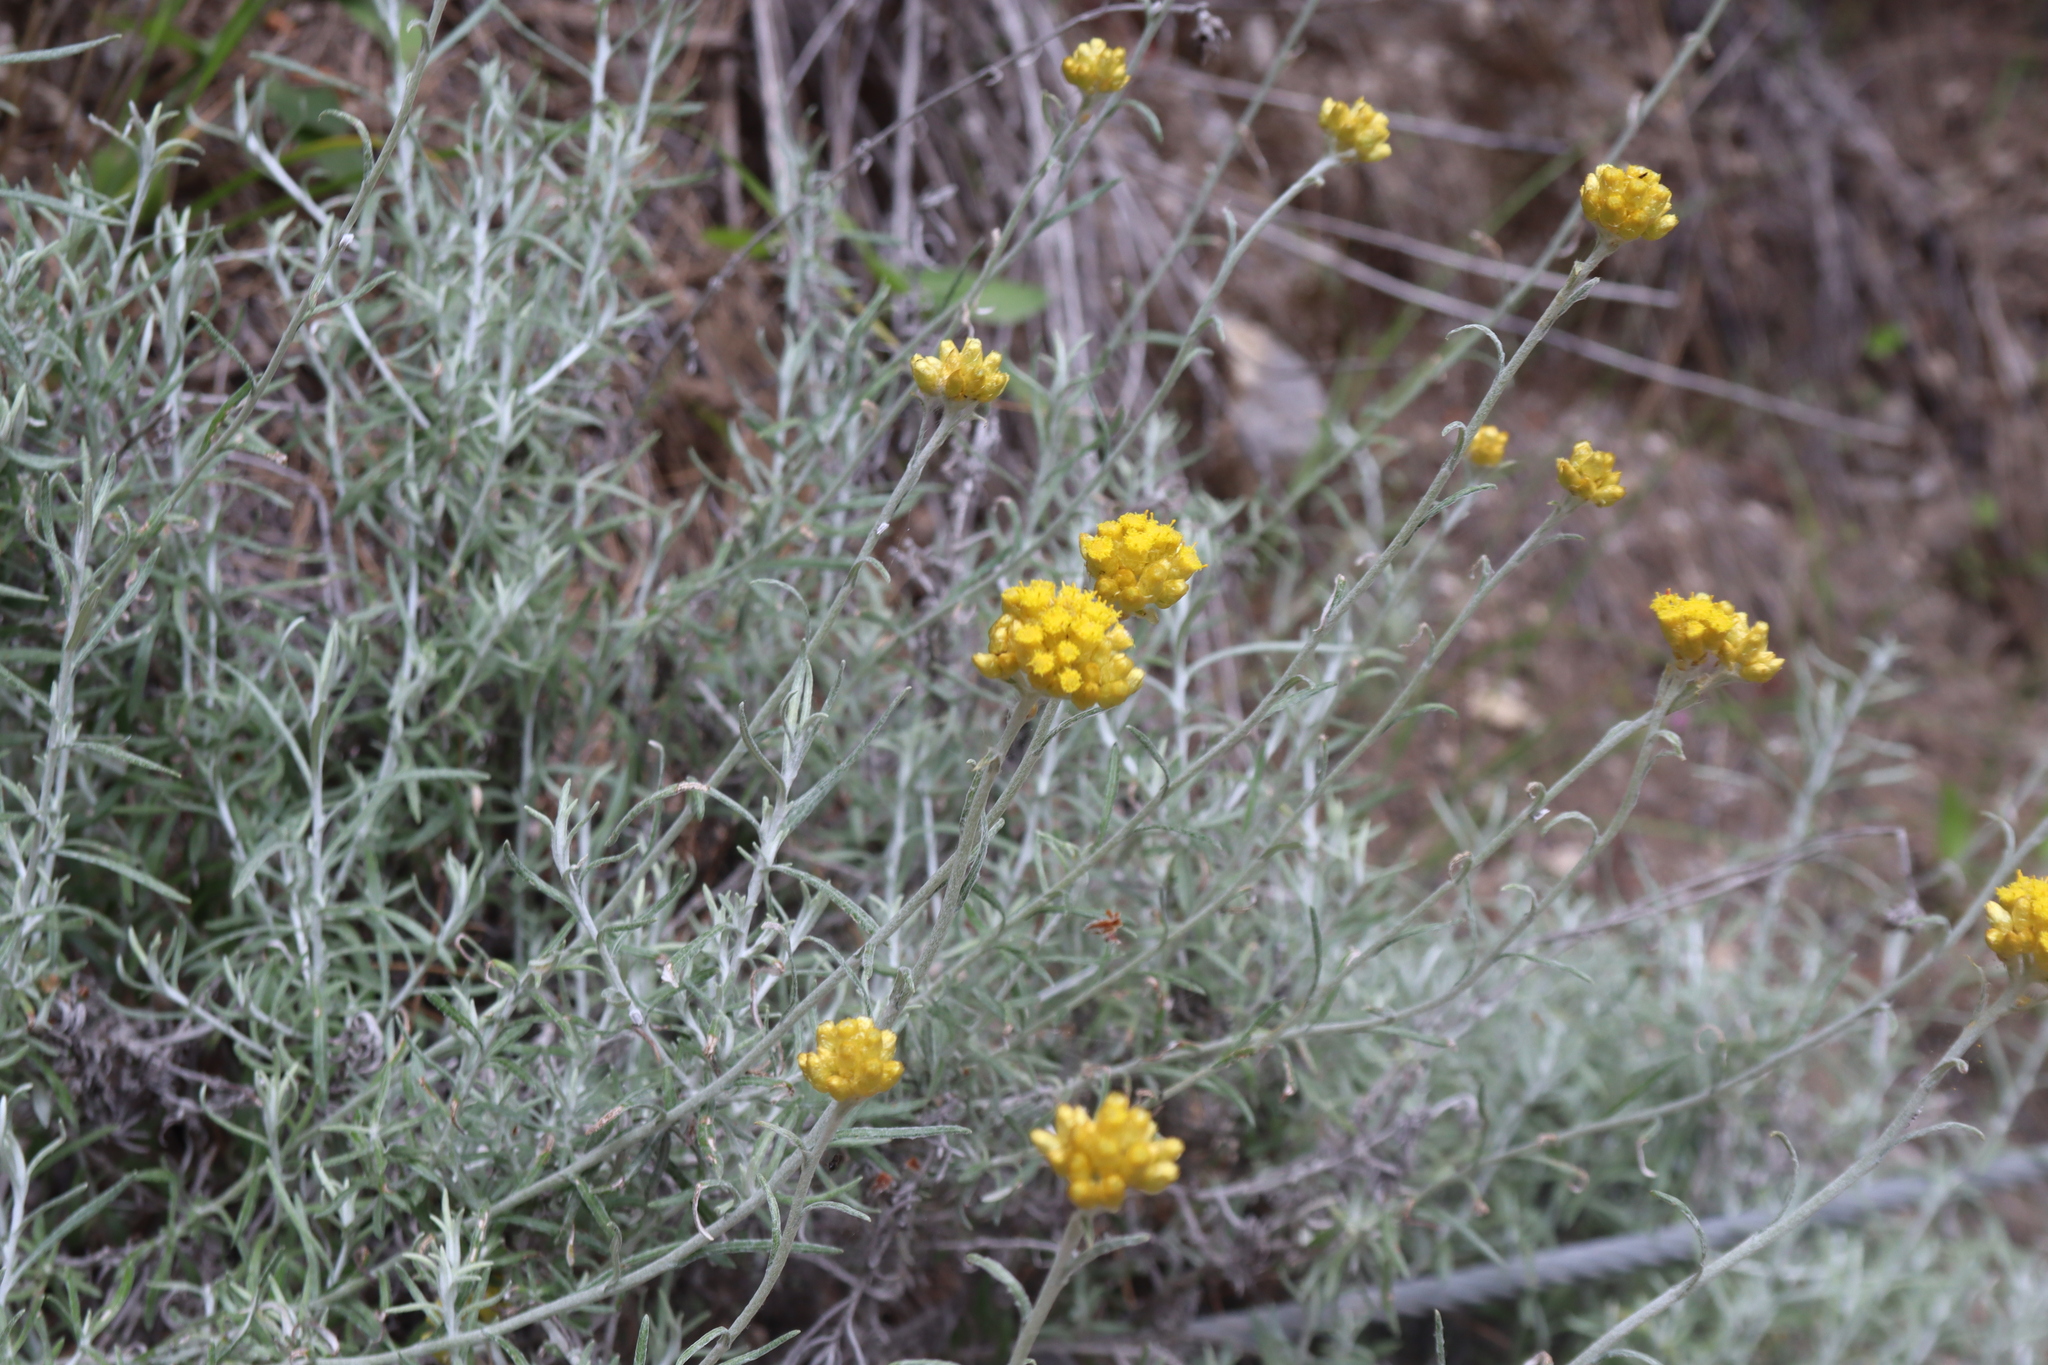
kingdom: Plantae
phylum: Tracheophyta
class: Magnoliopsida
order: Asterales
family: Asteraceae
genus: Helichrysum
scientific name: Helichrysum stoechas
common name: Goldilocks
